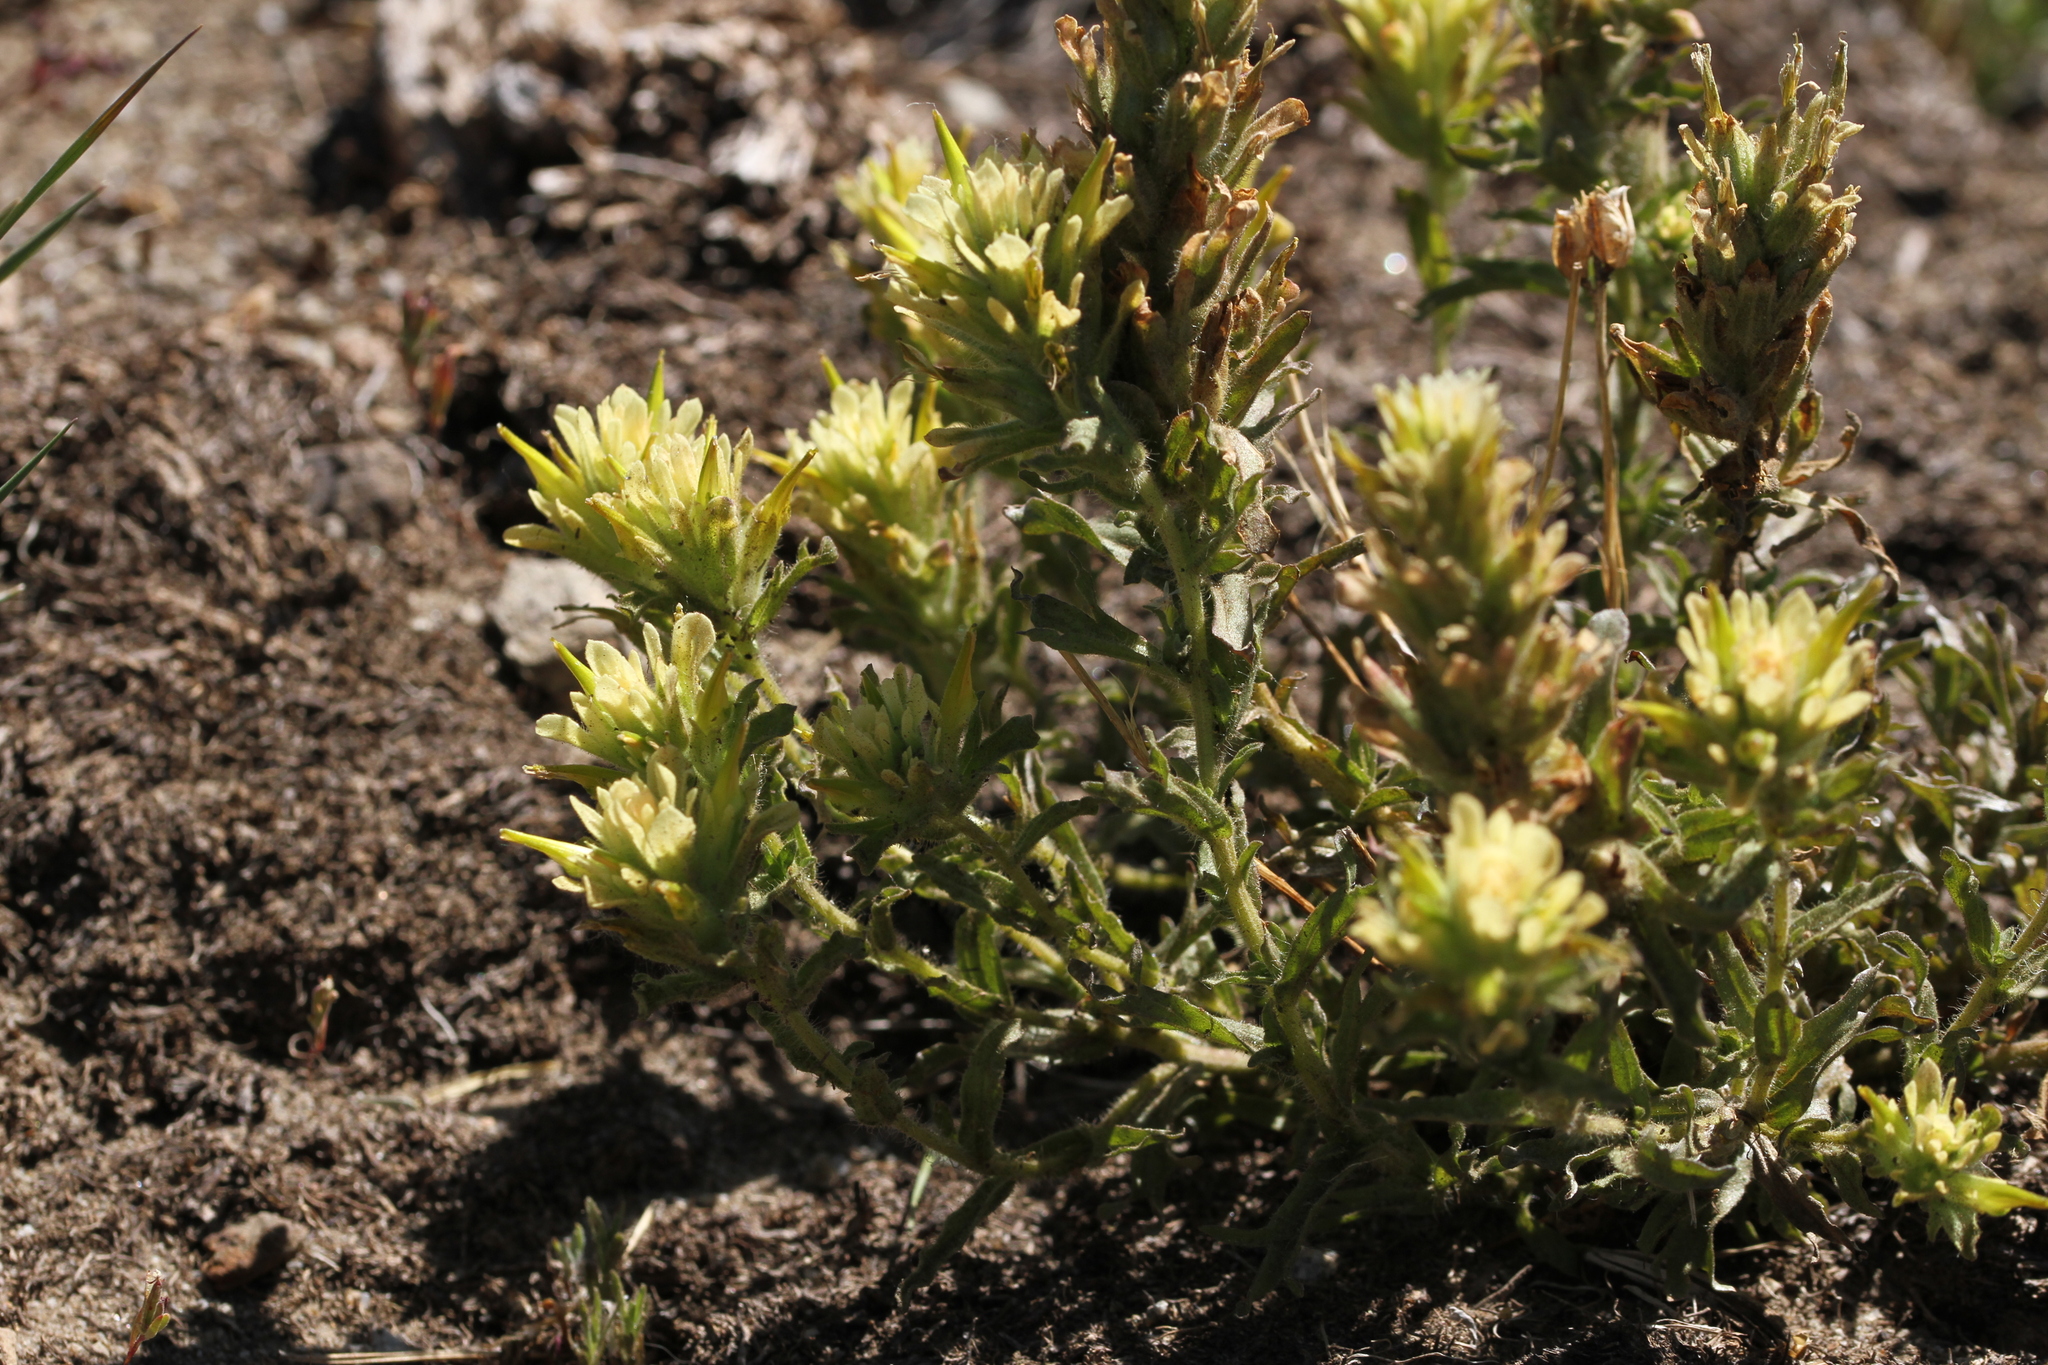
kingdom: Plantae
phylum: Tracheophyta
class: Magnoliopsida
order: Lamiales
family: Orobanchaceae
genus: Castilleja
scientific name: Castilleja applegatei
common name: Wavy-leaf paintbrush
